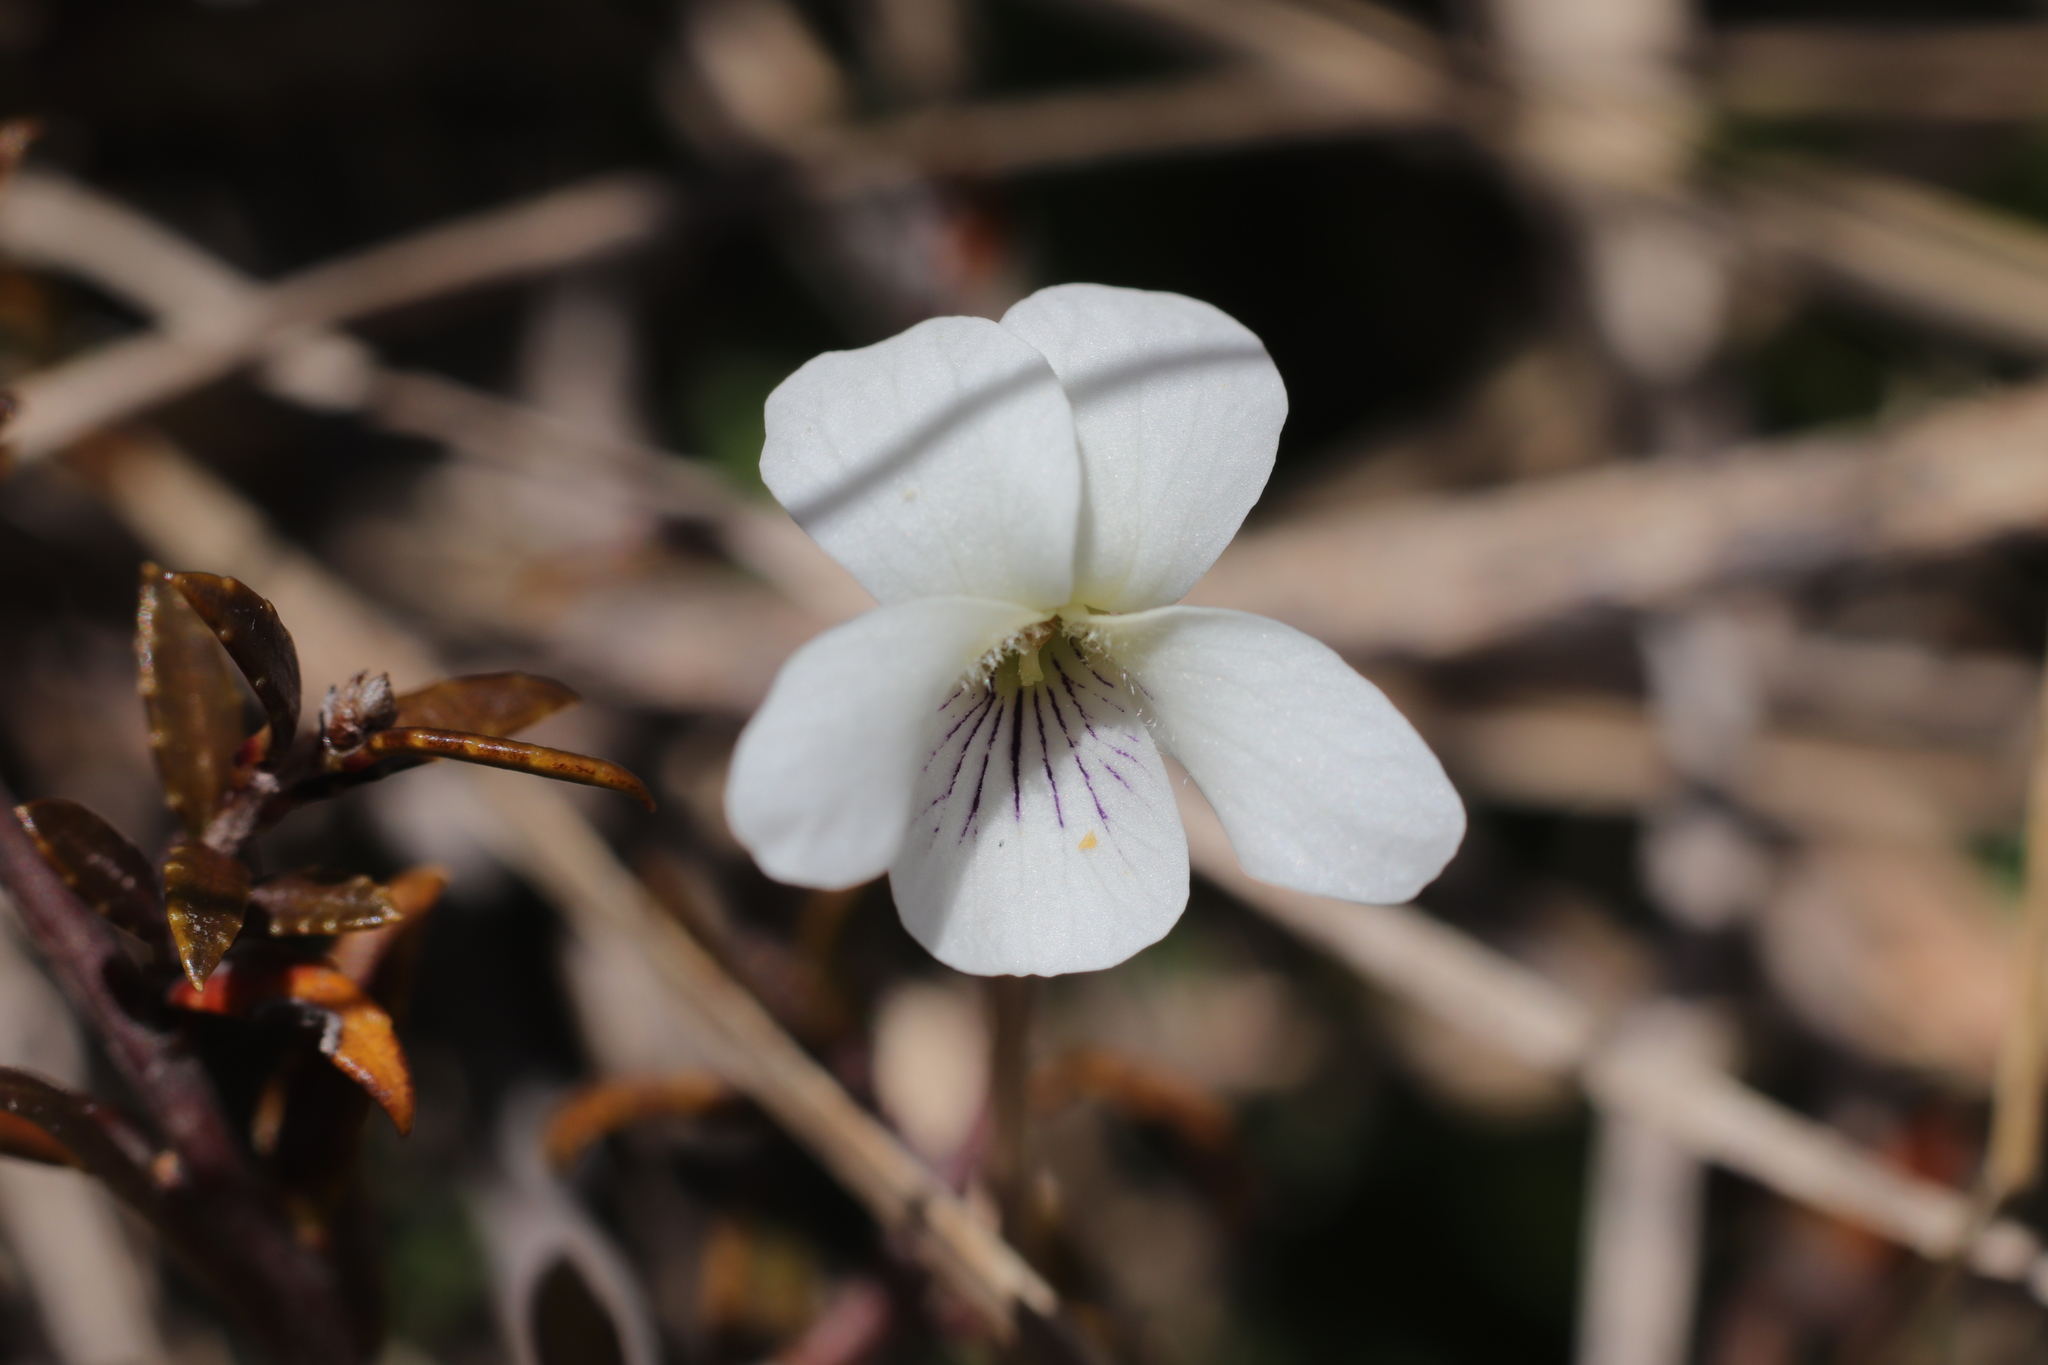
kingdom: Plantae
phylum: Tracheophyta
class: Magnoliopsida
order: Malpighiales
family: Violaceae
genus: Viola
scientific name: Viola cunninghamii
